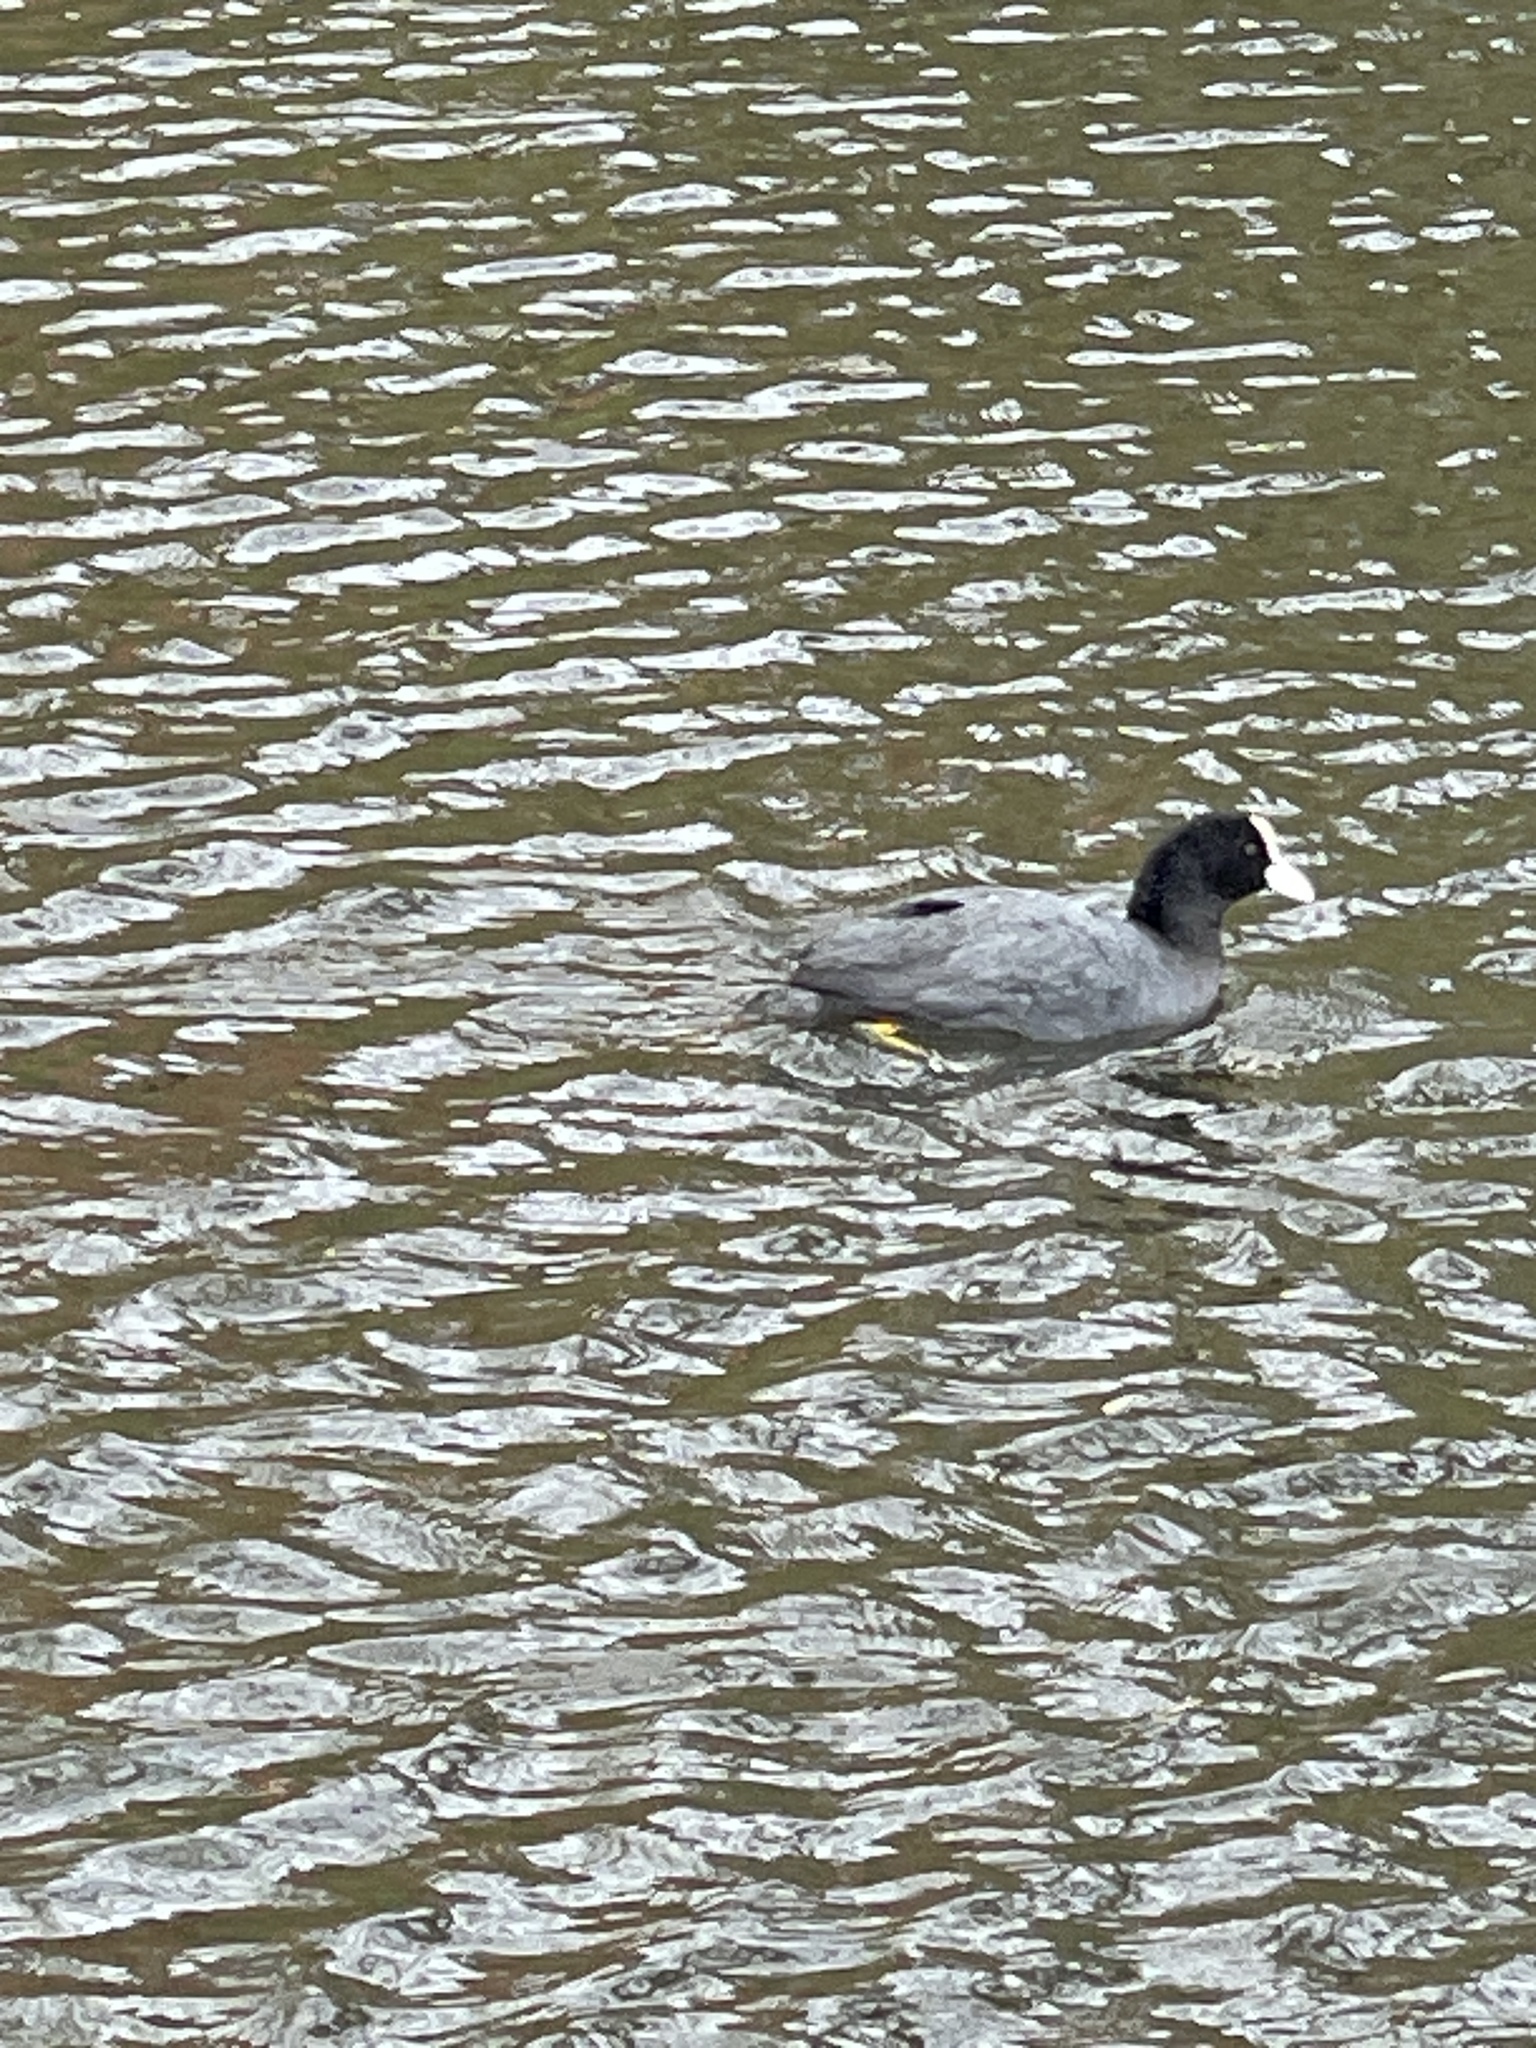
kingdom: Animalia
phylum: Chordata
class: Aves
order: Gruiformes
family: Rallidae
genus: Fulica
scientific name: Fulica atra
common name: Eurasian coot
